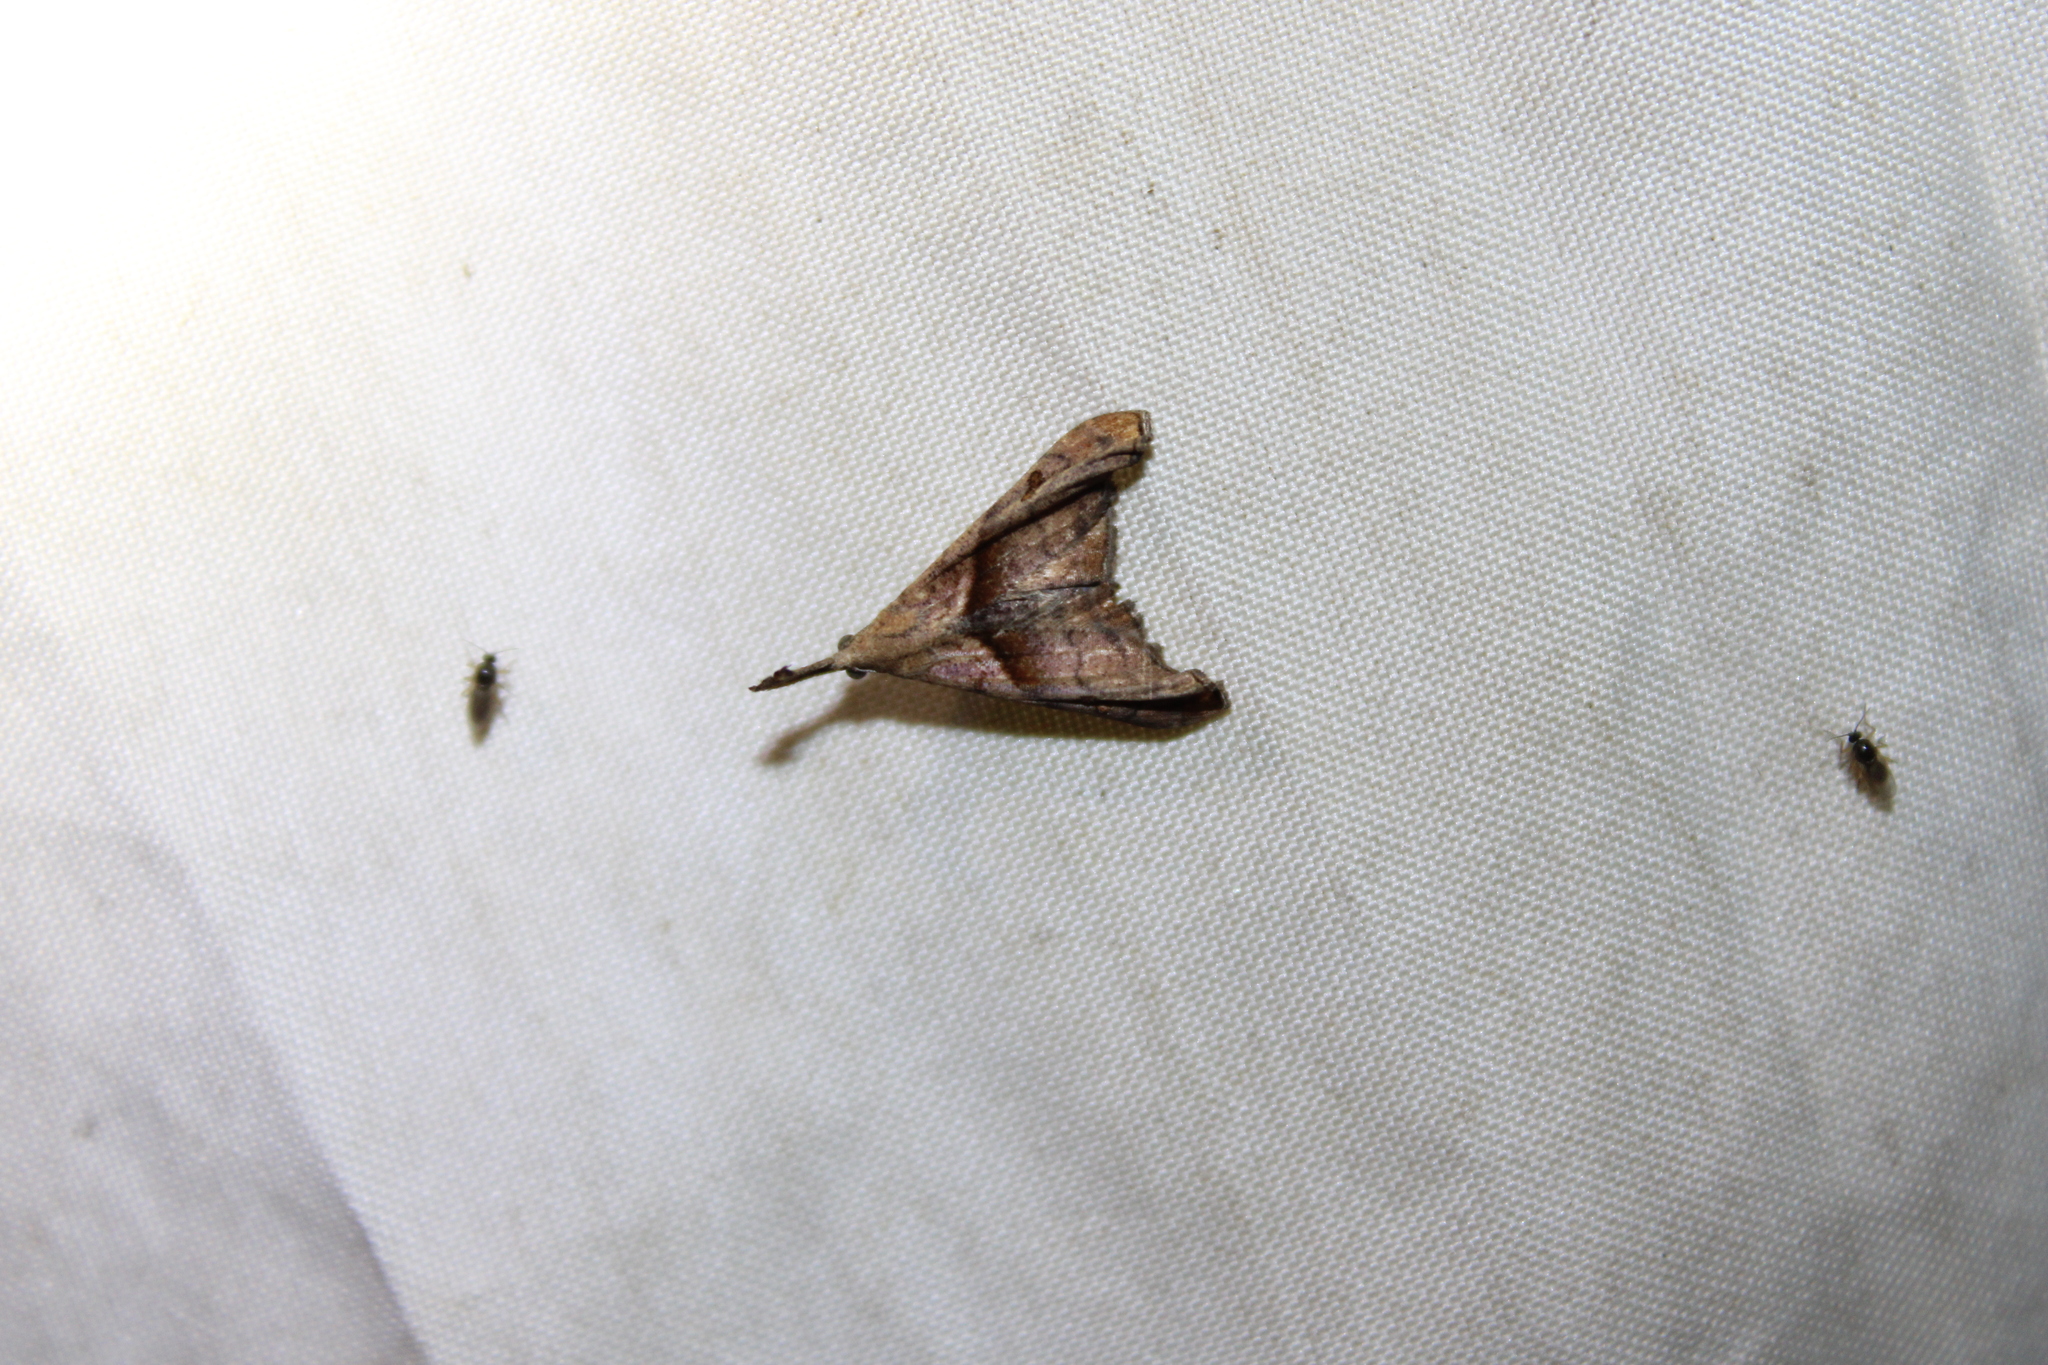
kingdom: Animalia
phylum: Arthropoda
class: Insecta
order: Lepidoptera
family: Erebidae
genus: Palthis
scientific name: Palthis angulalis
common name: Dark-spotted palthis moth
